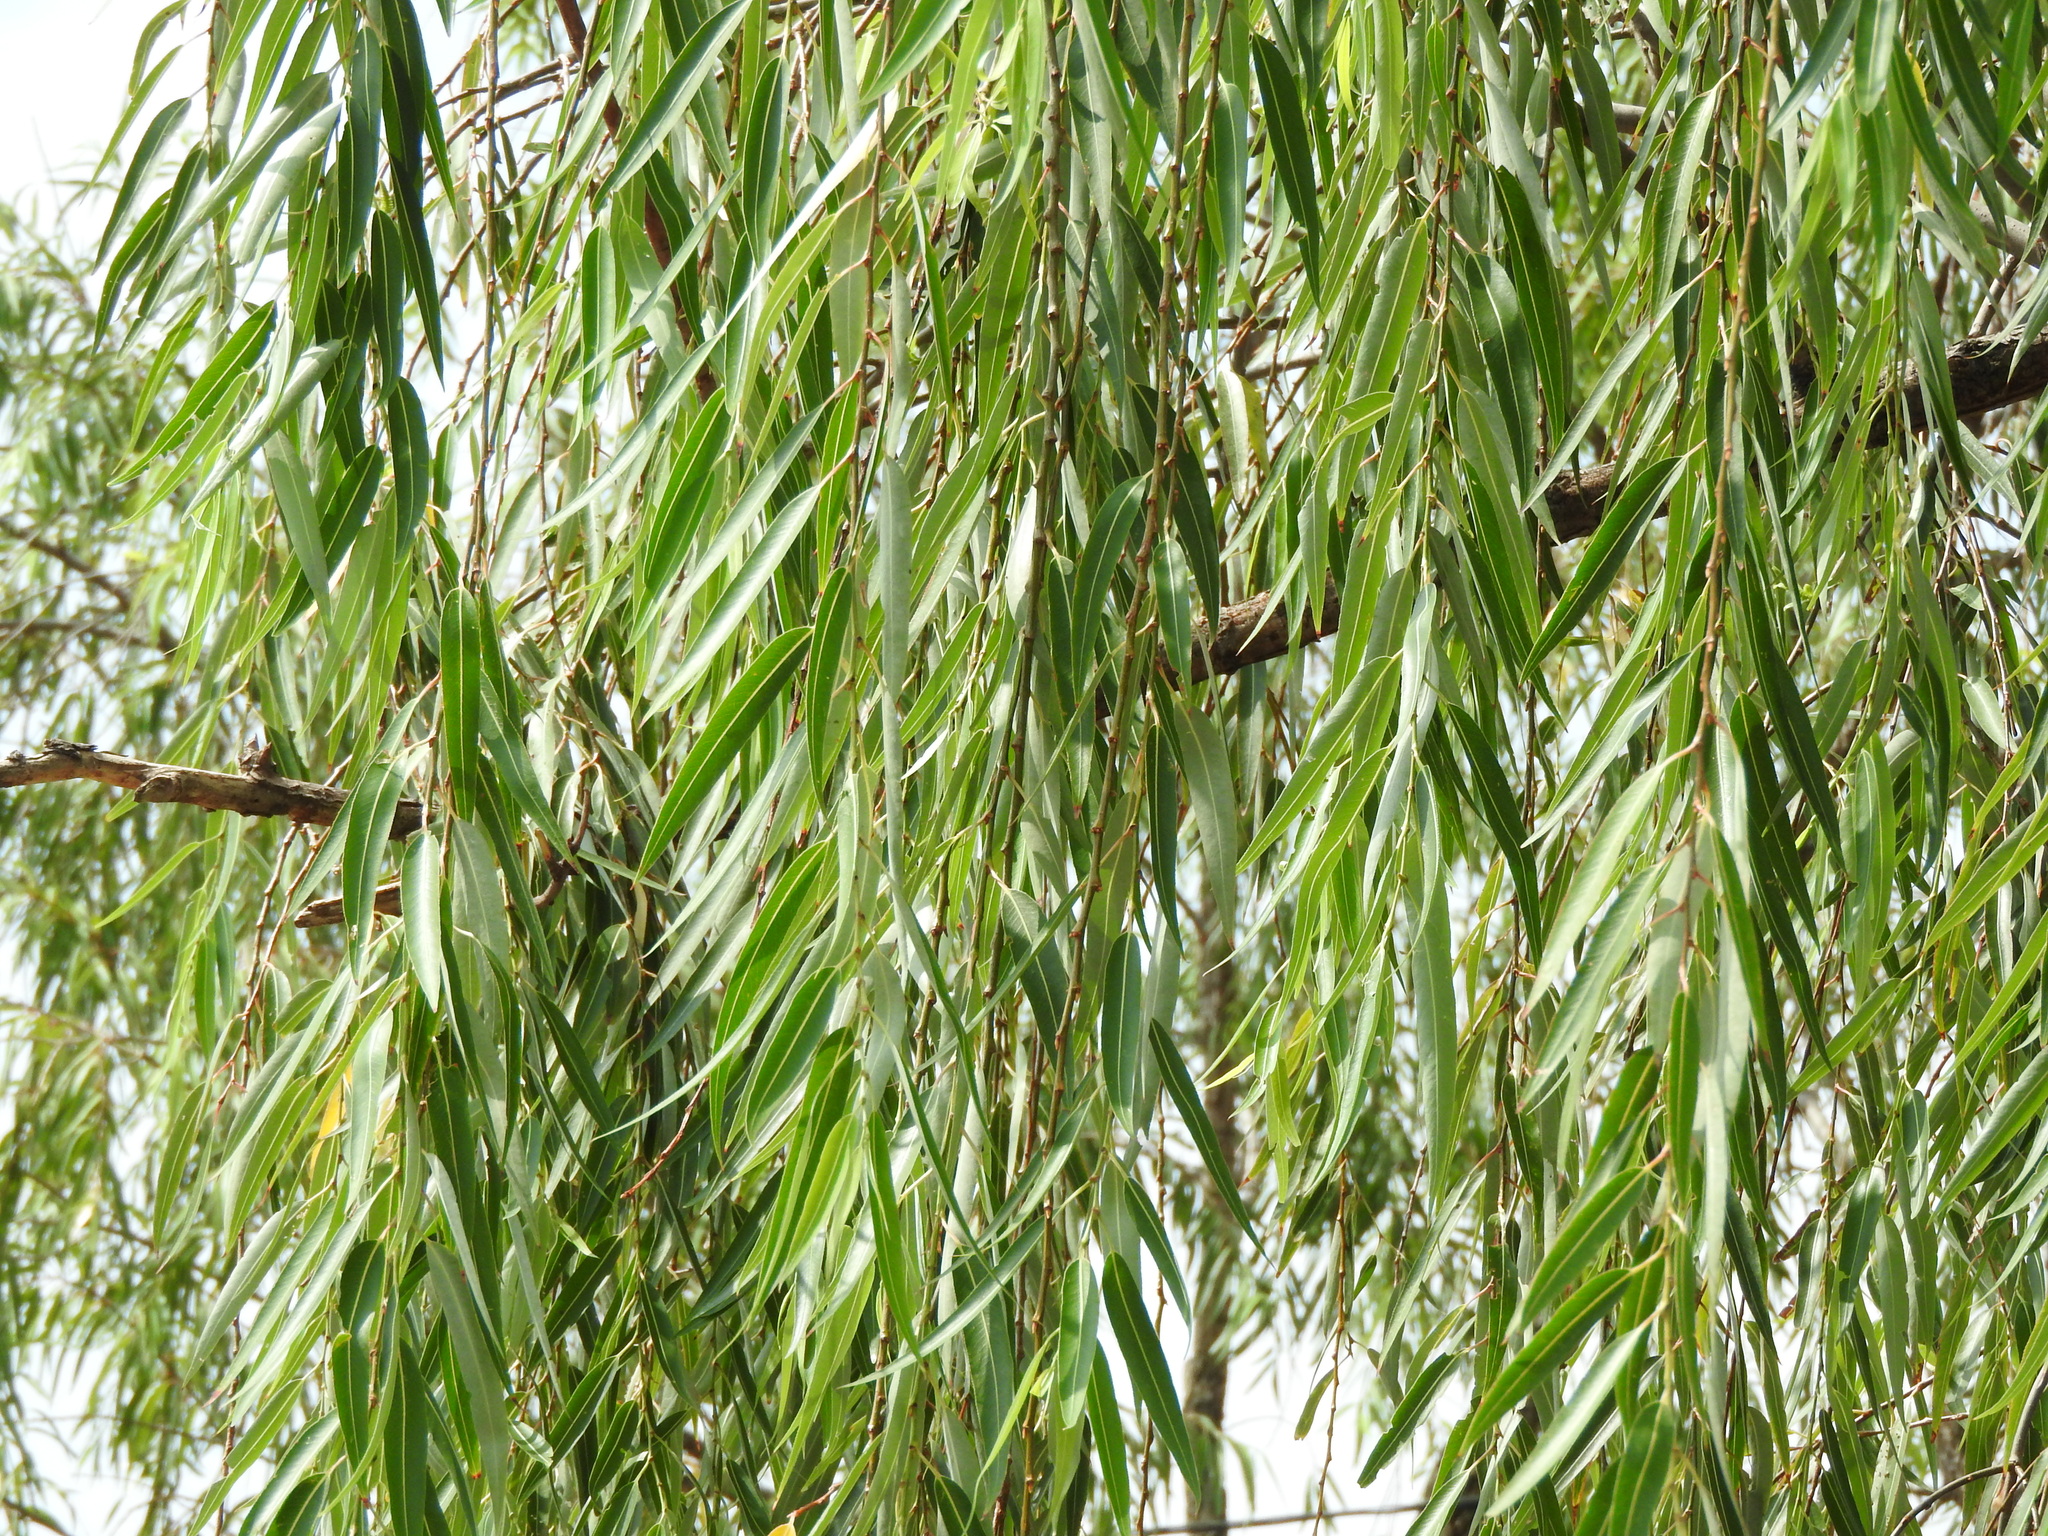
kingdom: Plantae
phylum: Tracheophyta
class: Magnoliopsida
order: Malpighiales
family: Salicaceae
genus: Salix
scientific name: Salix humboldtiana
